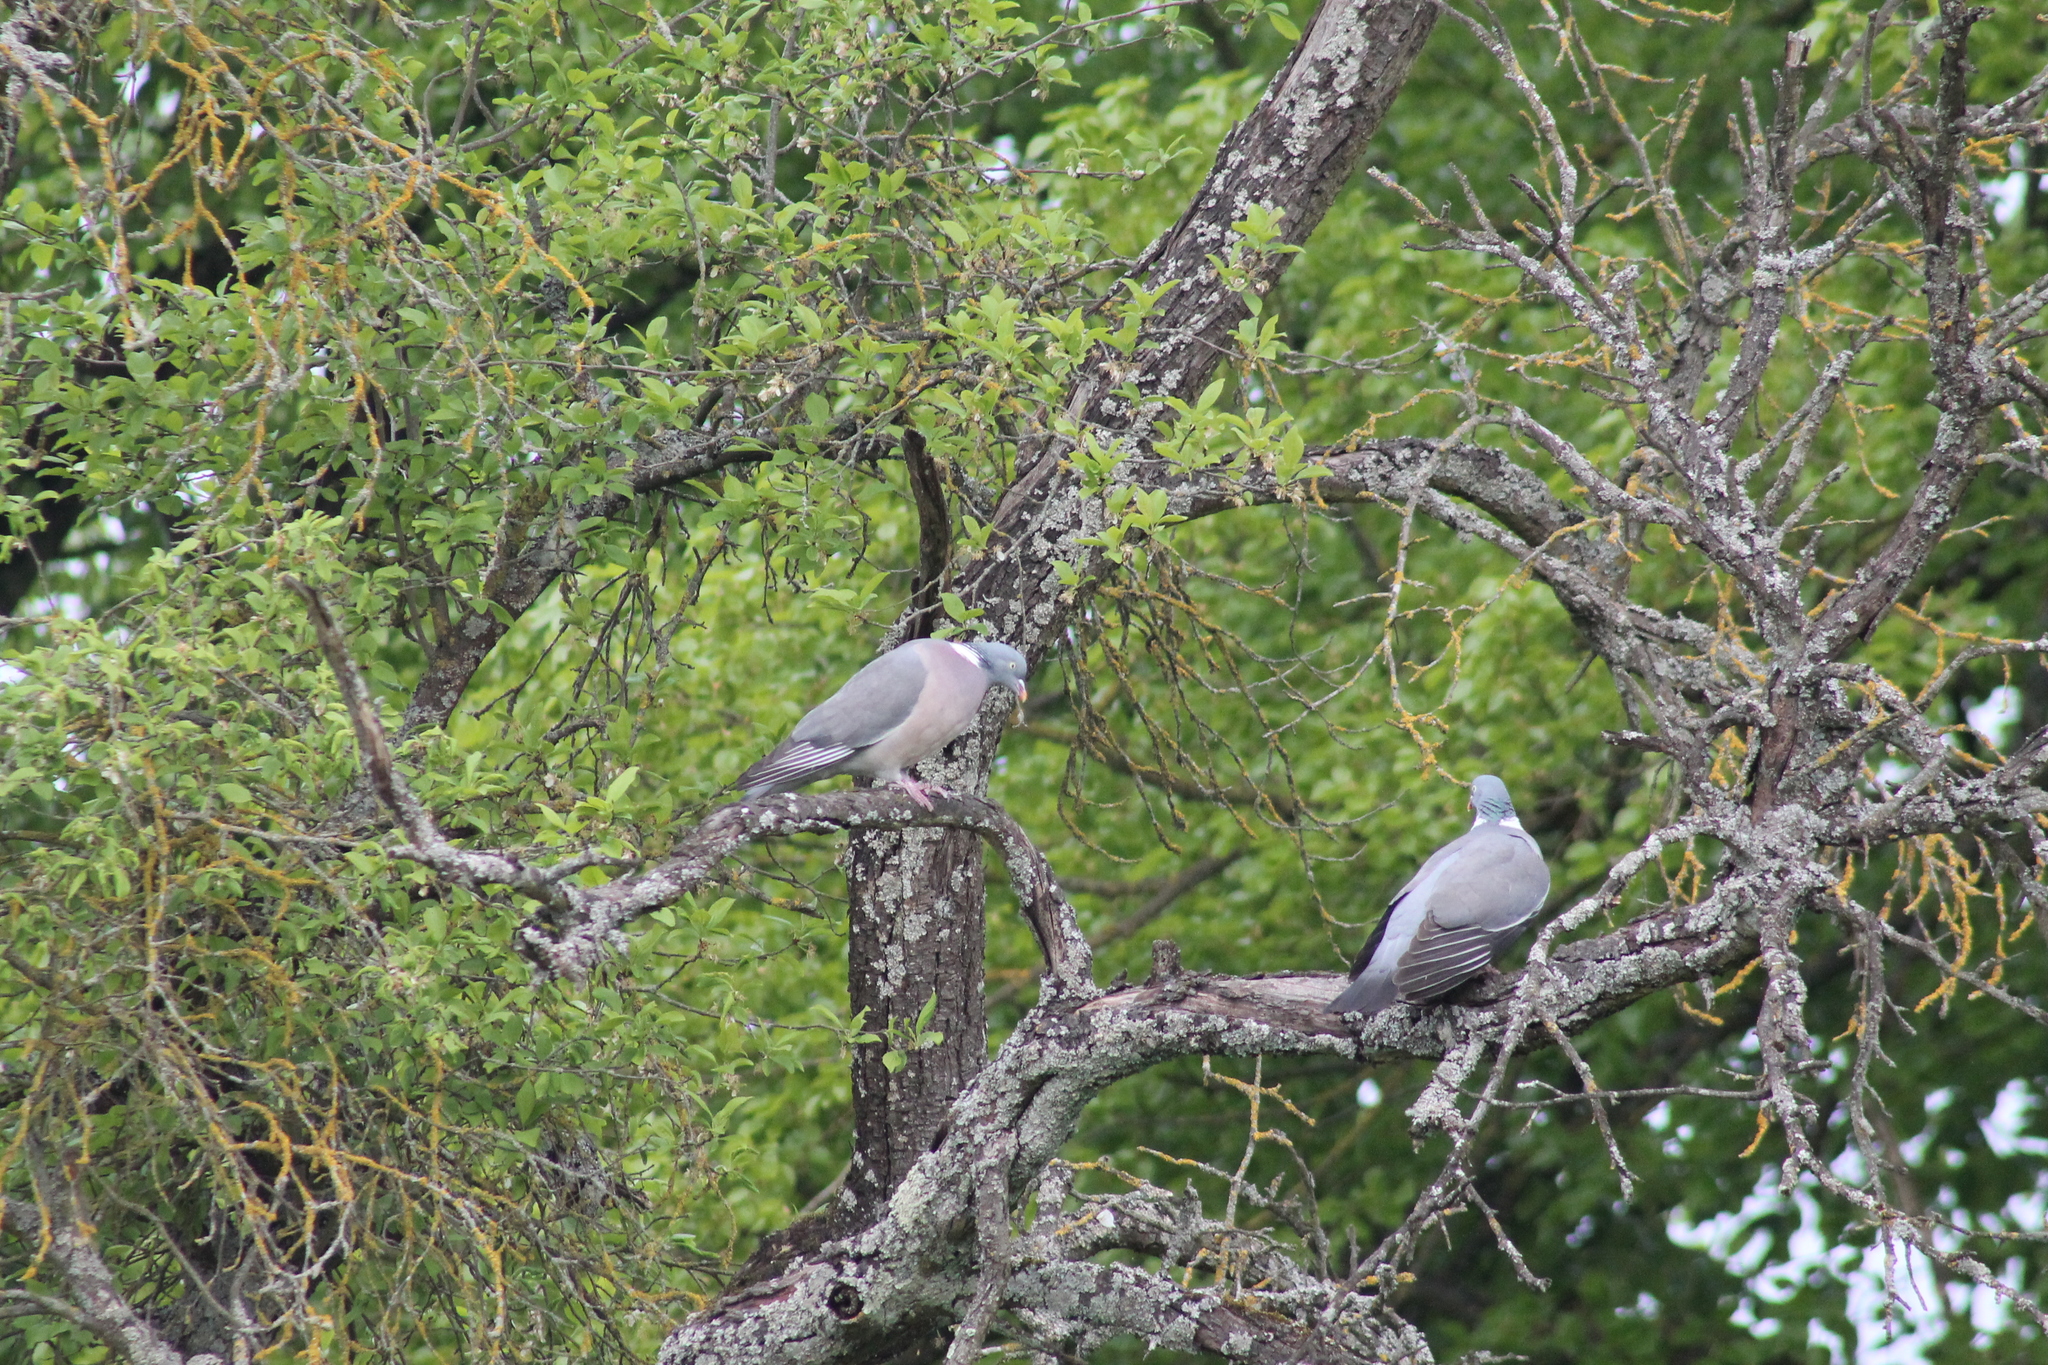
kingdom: Animalia
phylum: Chordata
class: Aves
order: Columbiformes
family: Columbidae
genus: Columba
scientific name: Columba palumbus
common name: Common wood pigeon
